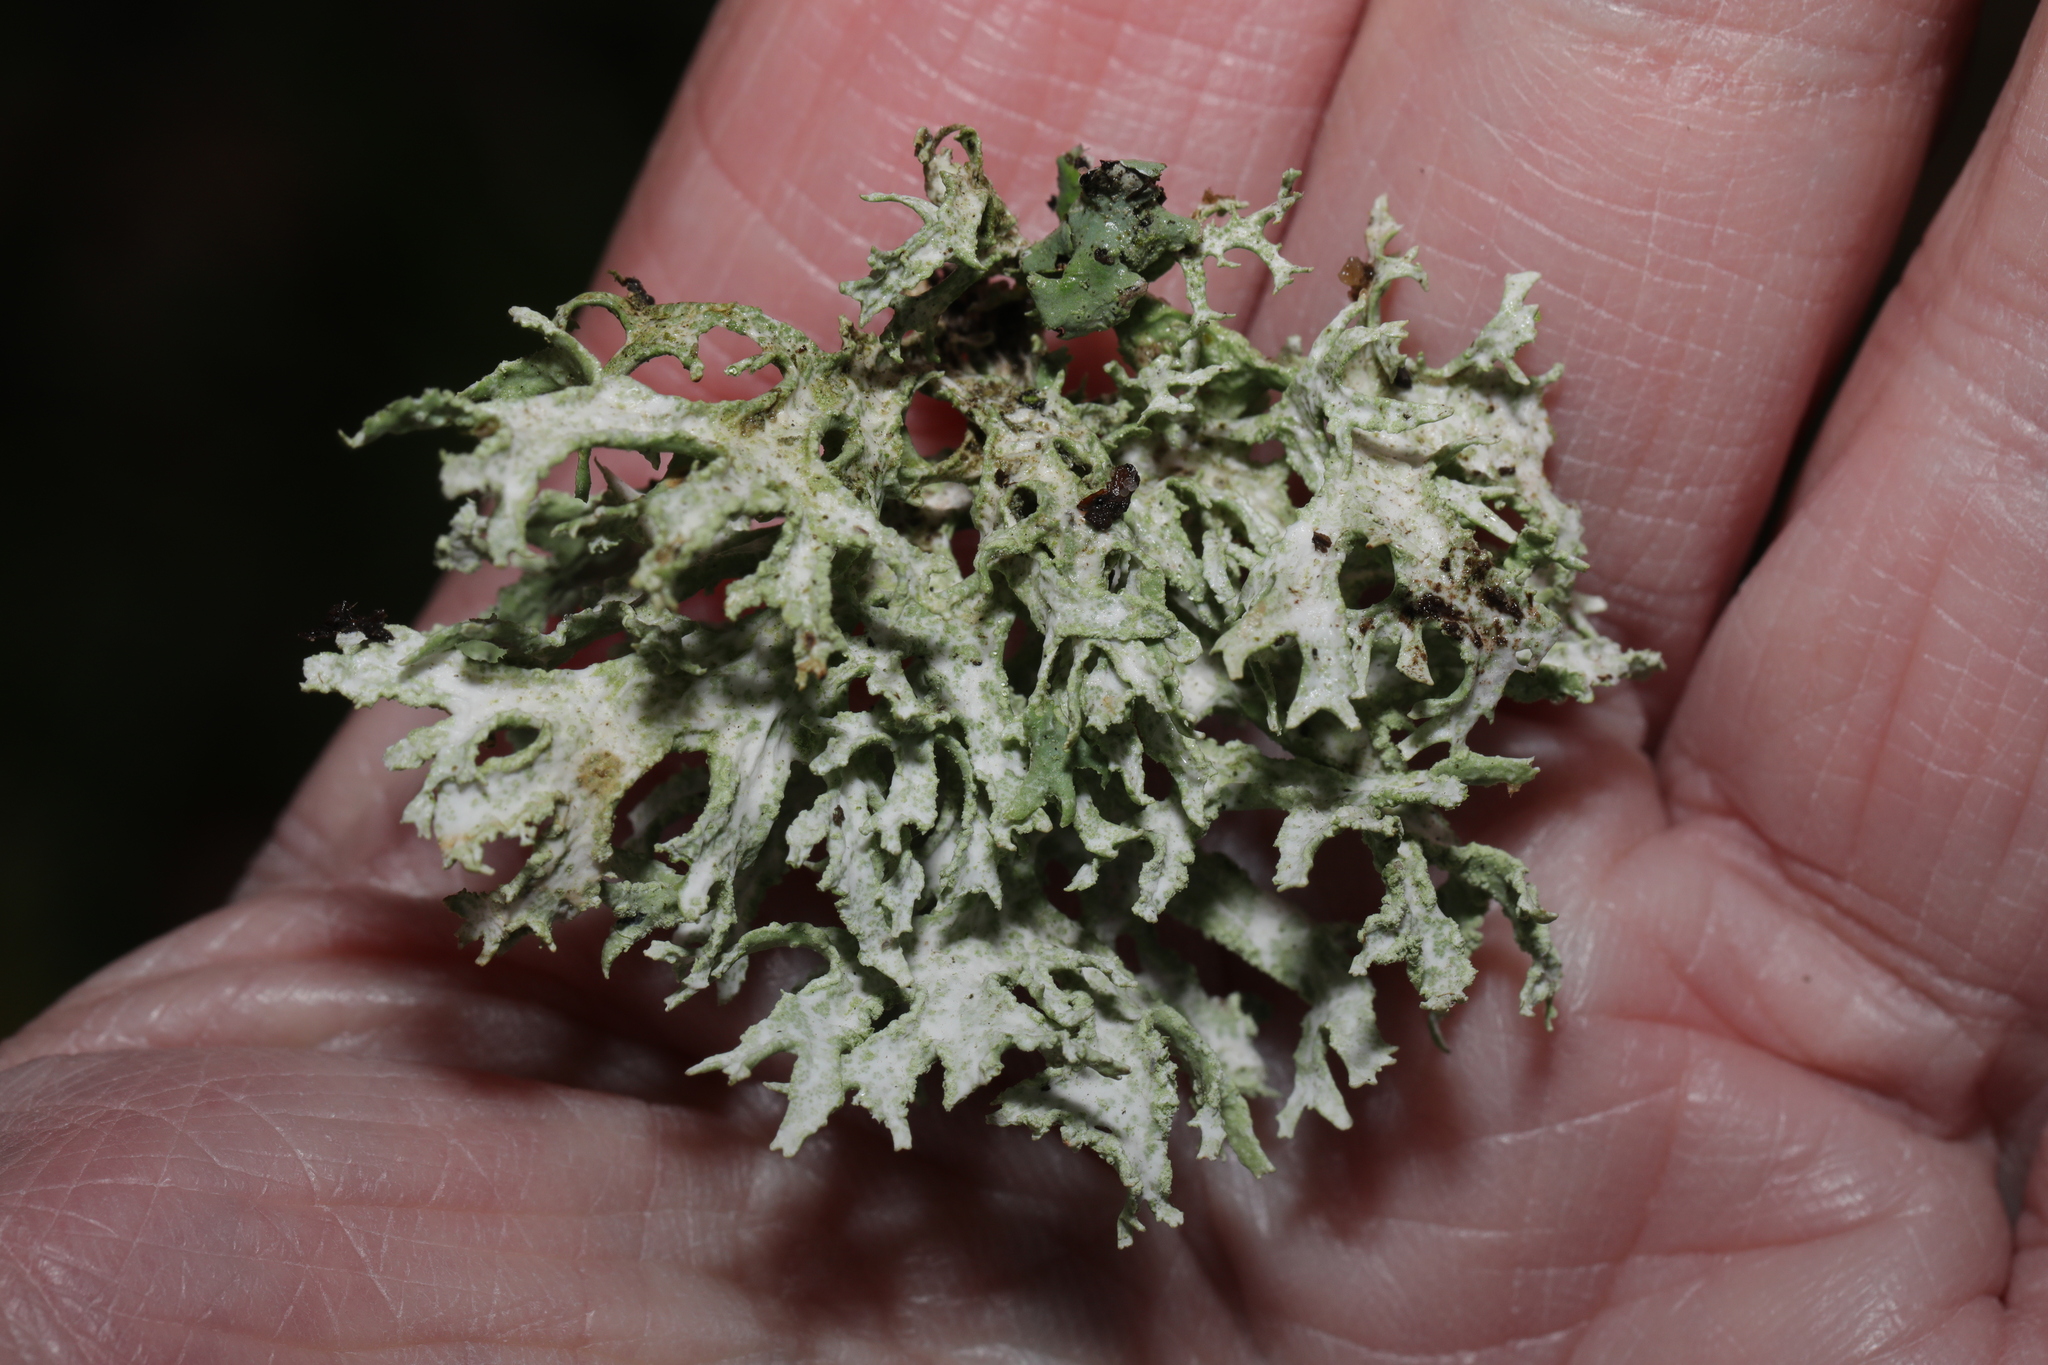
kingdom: Fungi
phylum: Ascomycota
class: Lecanoromycetes
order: Lecanorales
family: Parmeliaceae
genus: Evernia
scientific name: Evernia prunastri
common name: Oak moss
